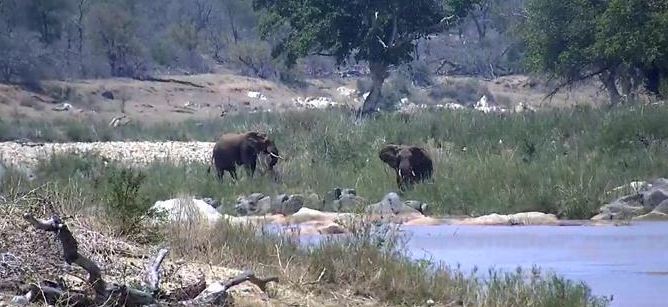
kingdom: Animalia
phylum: Chordata
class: Mammalia
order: Proboscidea
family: Elephantidae
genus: Loxodonta
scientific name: Loxodonta africana
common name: African elephant
